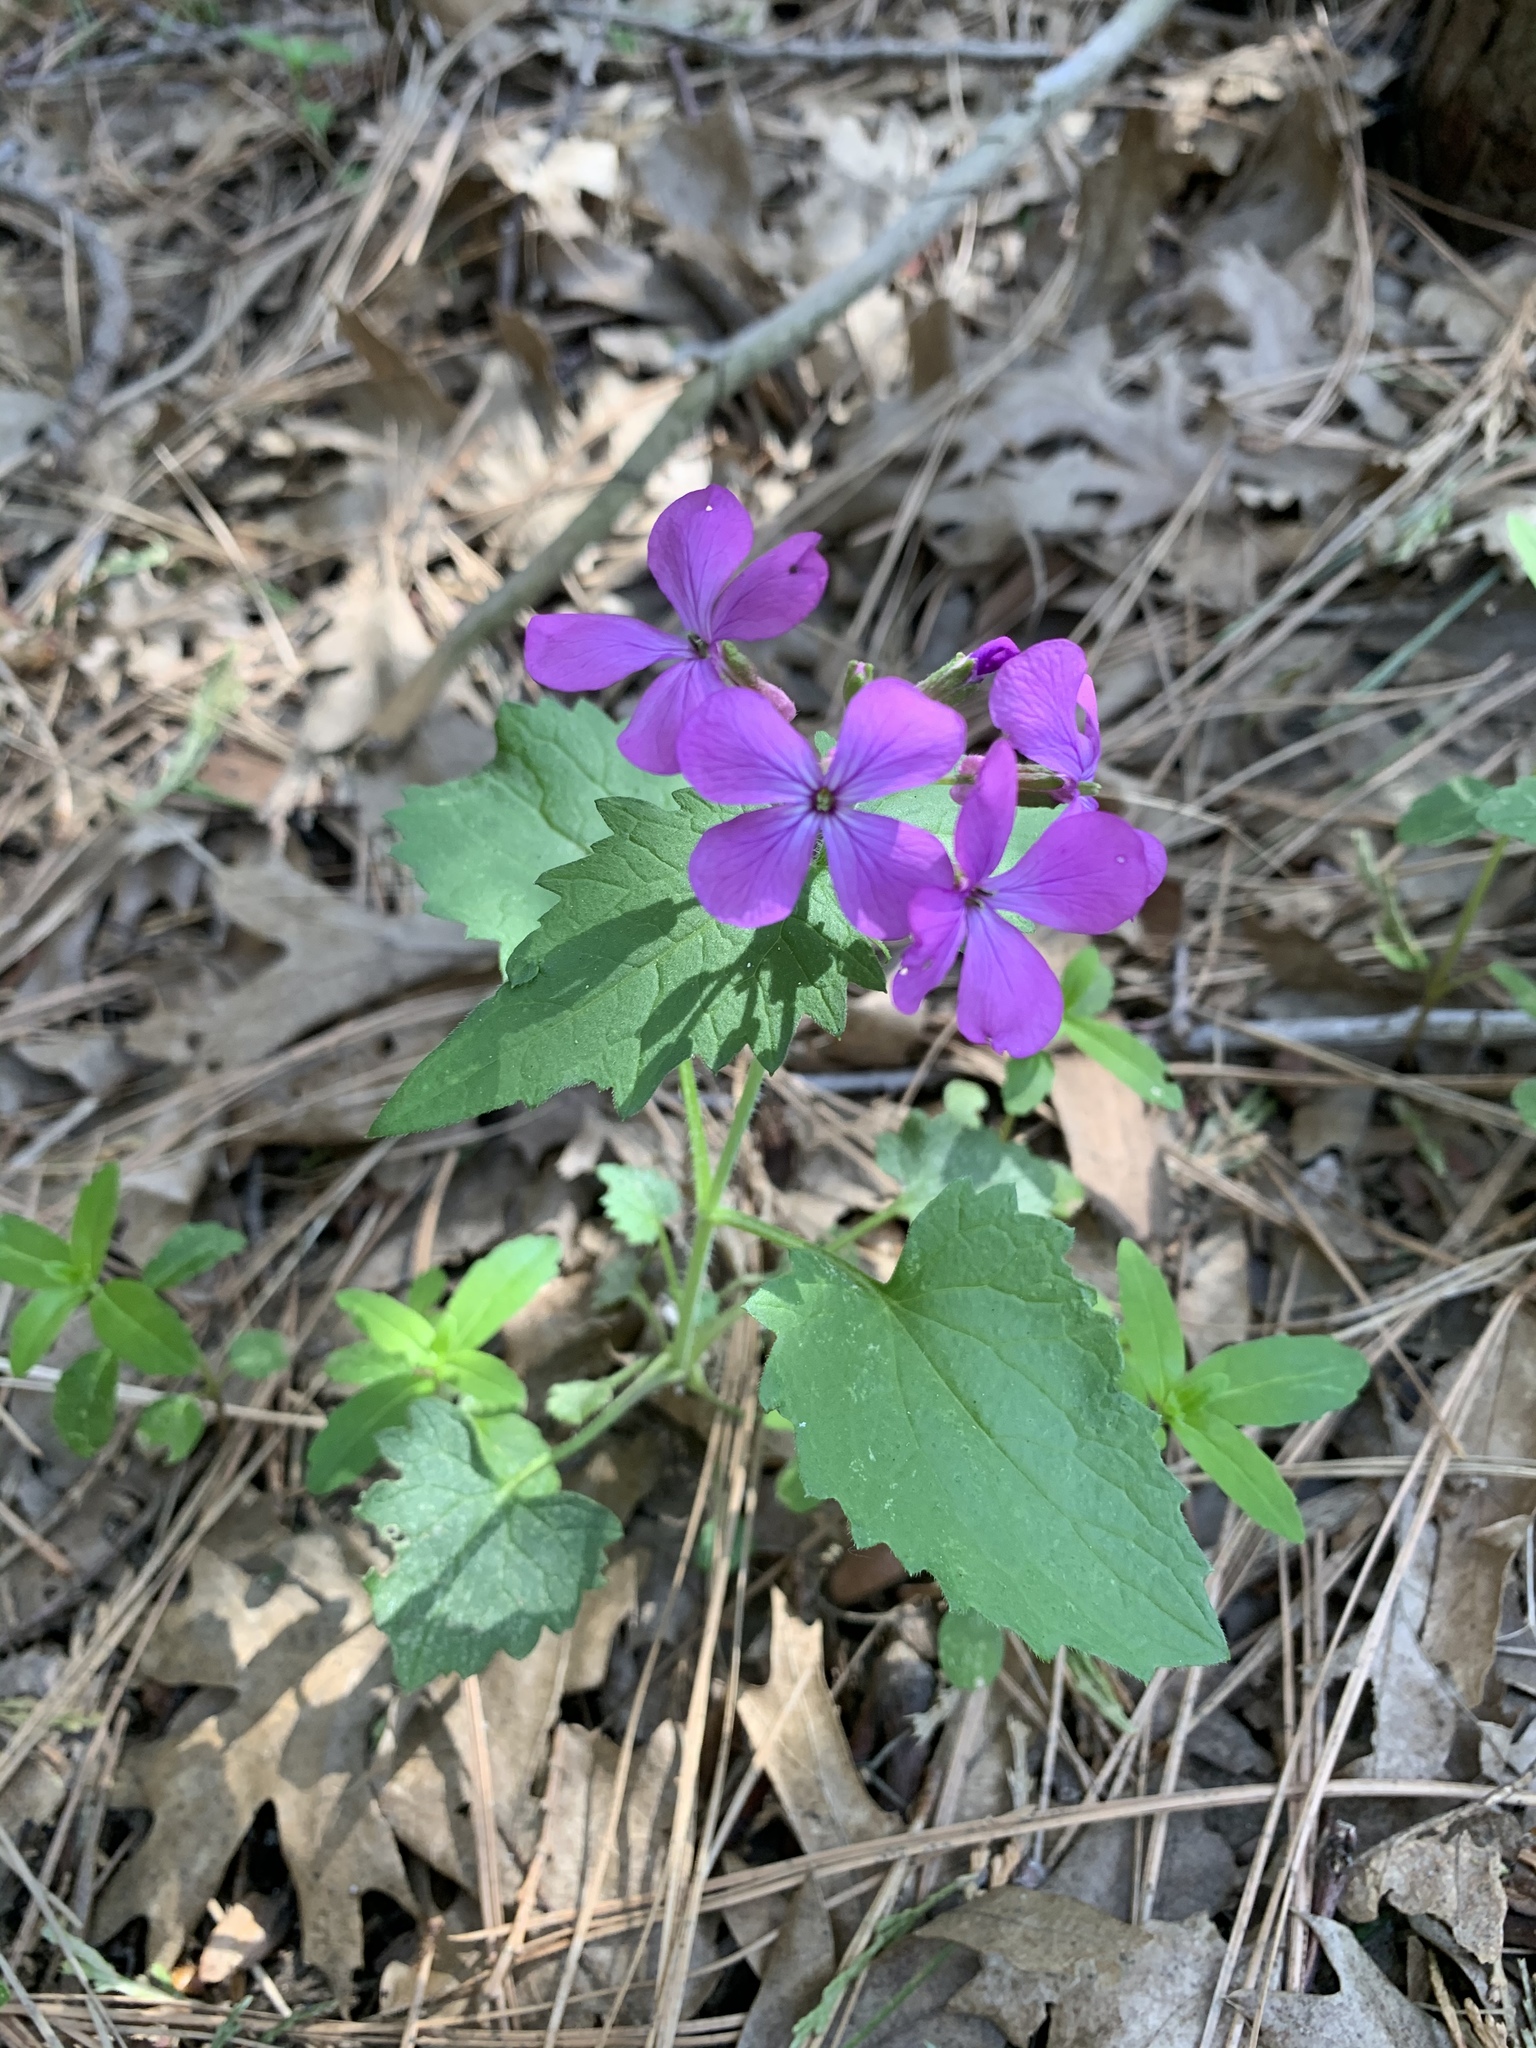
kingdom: Plantae
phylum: Tracheophyta
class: Magnoliopsida
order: Brassicales
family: Brassicaceae
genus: Lunaria
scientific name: Lunaria annua
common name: Honesty
